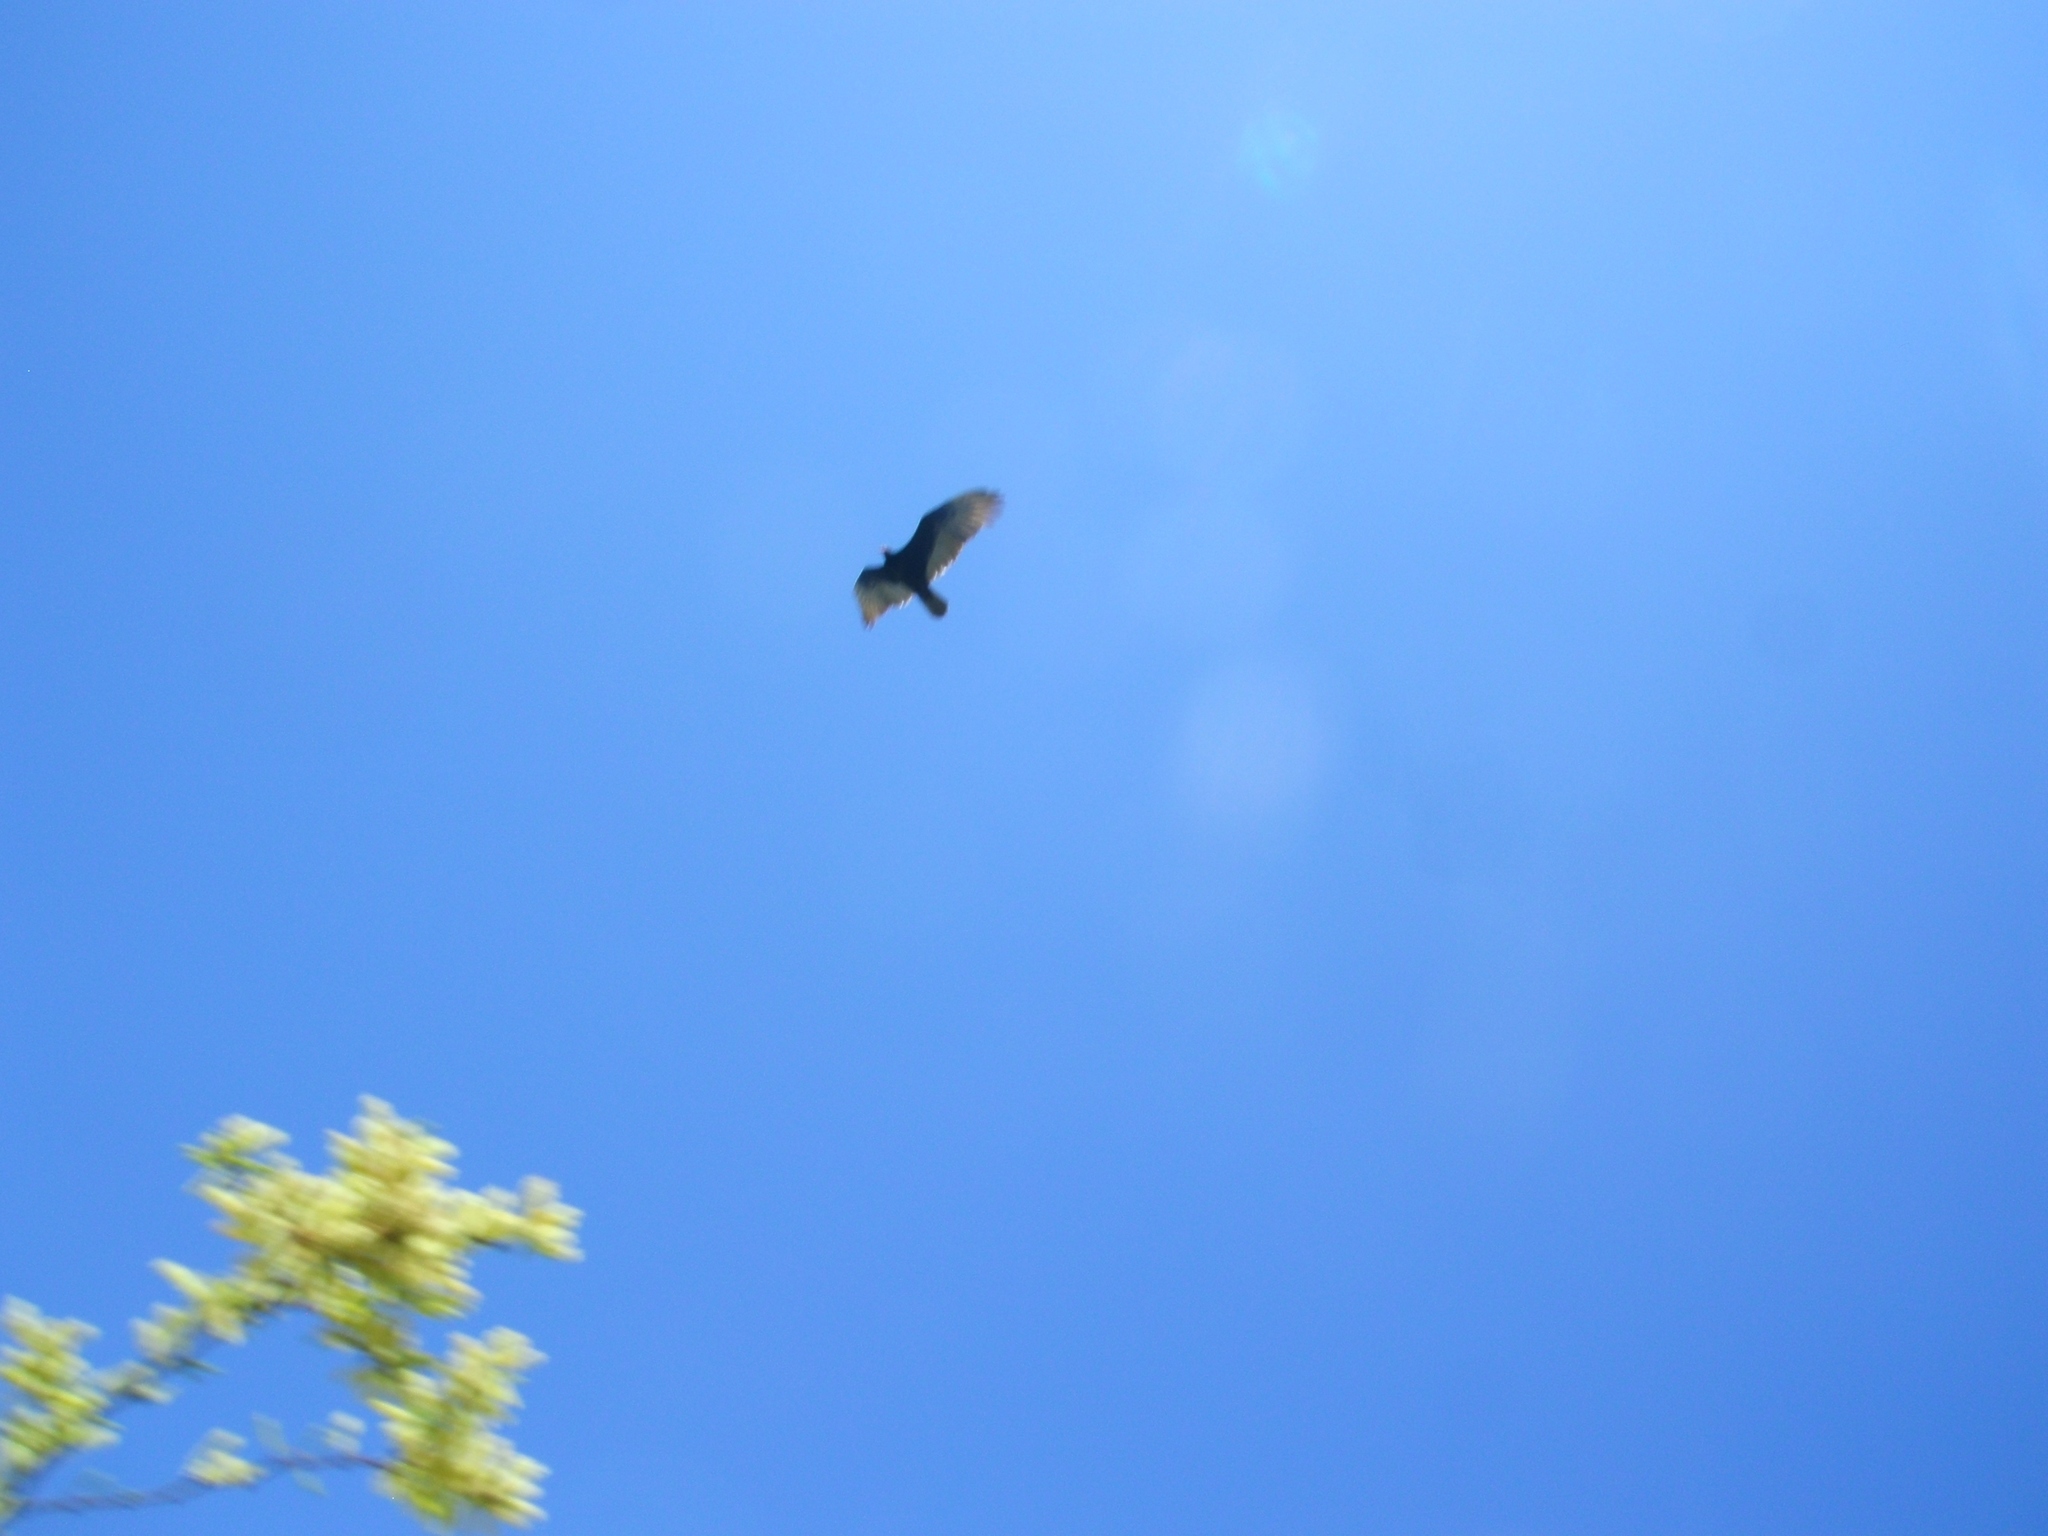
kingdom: Animalia
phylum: Chordata
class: Aves
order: Accipitriformes
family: Cathartidae
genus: Cathartes
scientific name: Cathartes aura
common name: Turkey vulture
